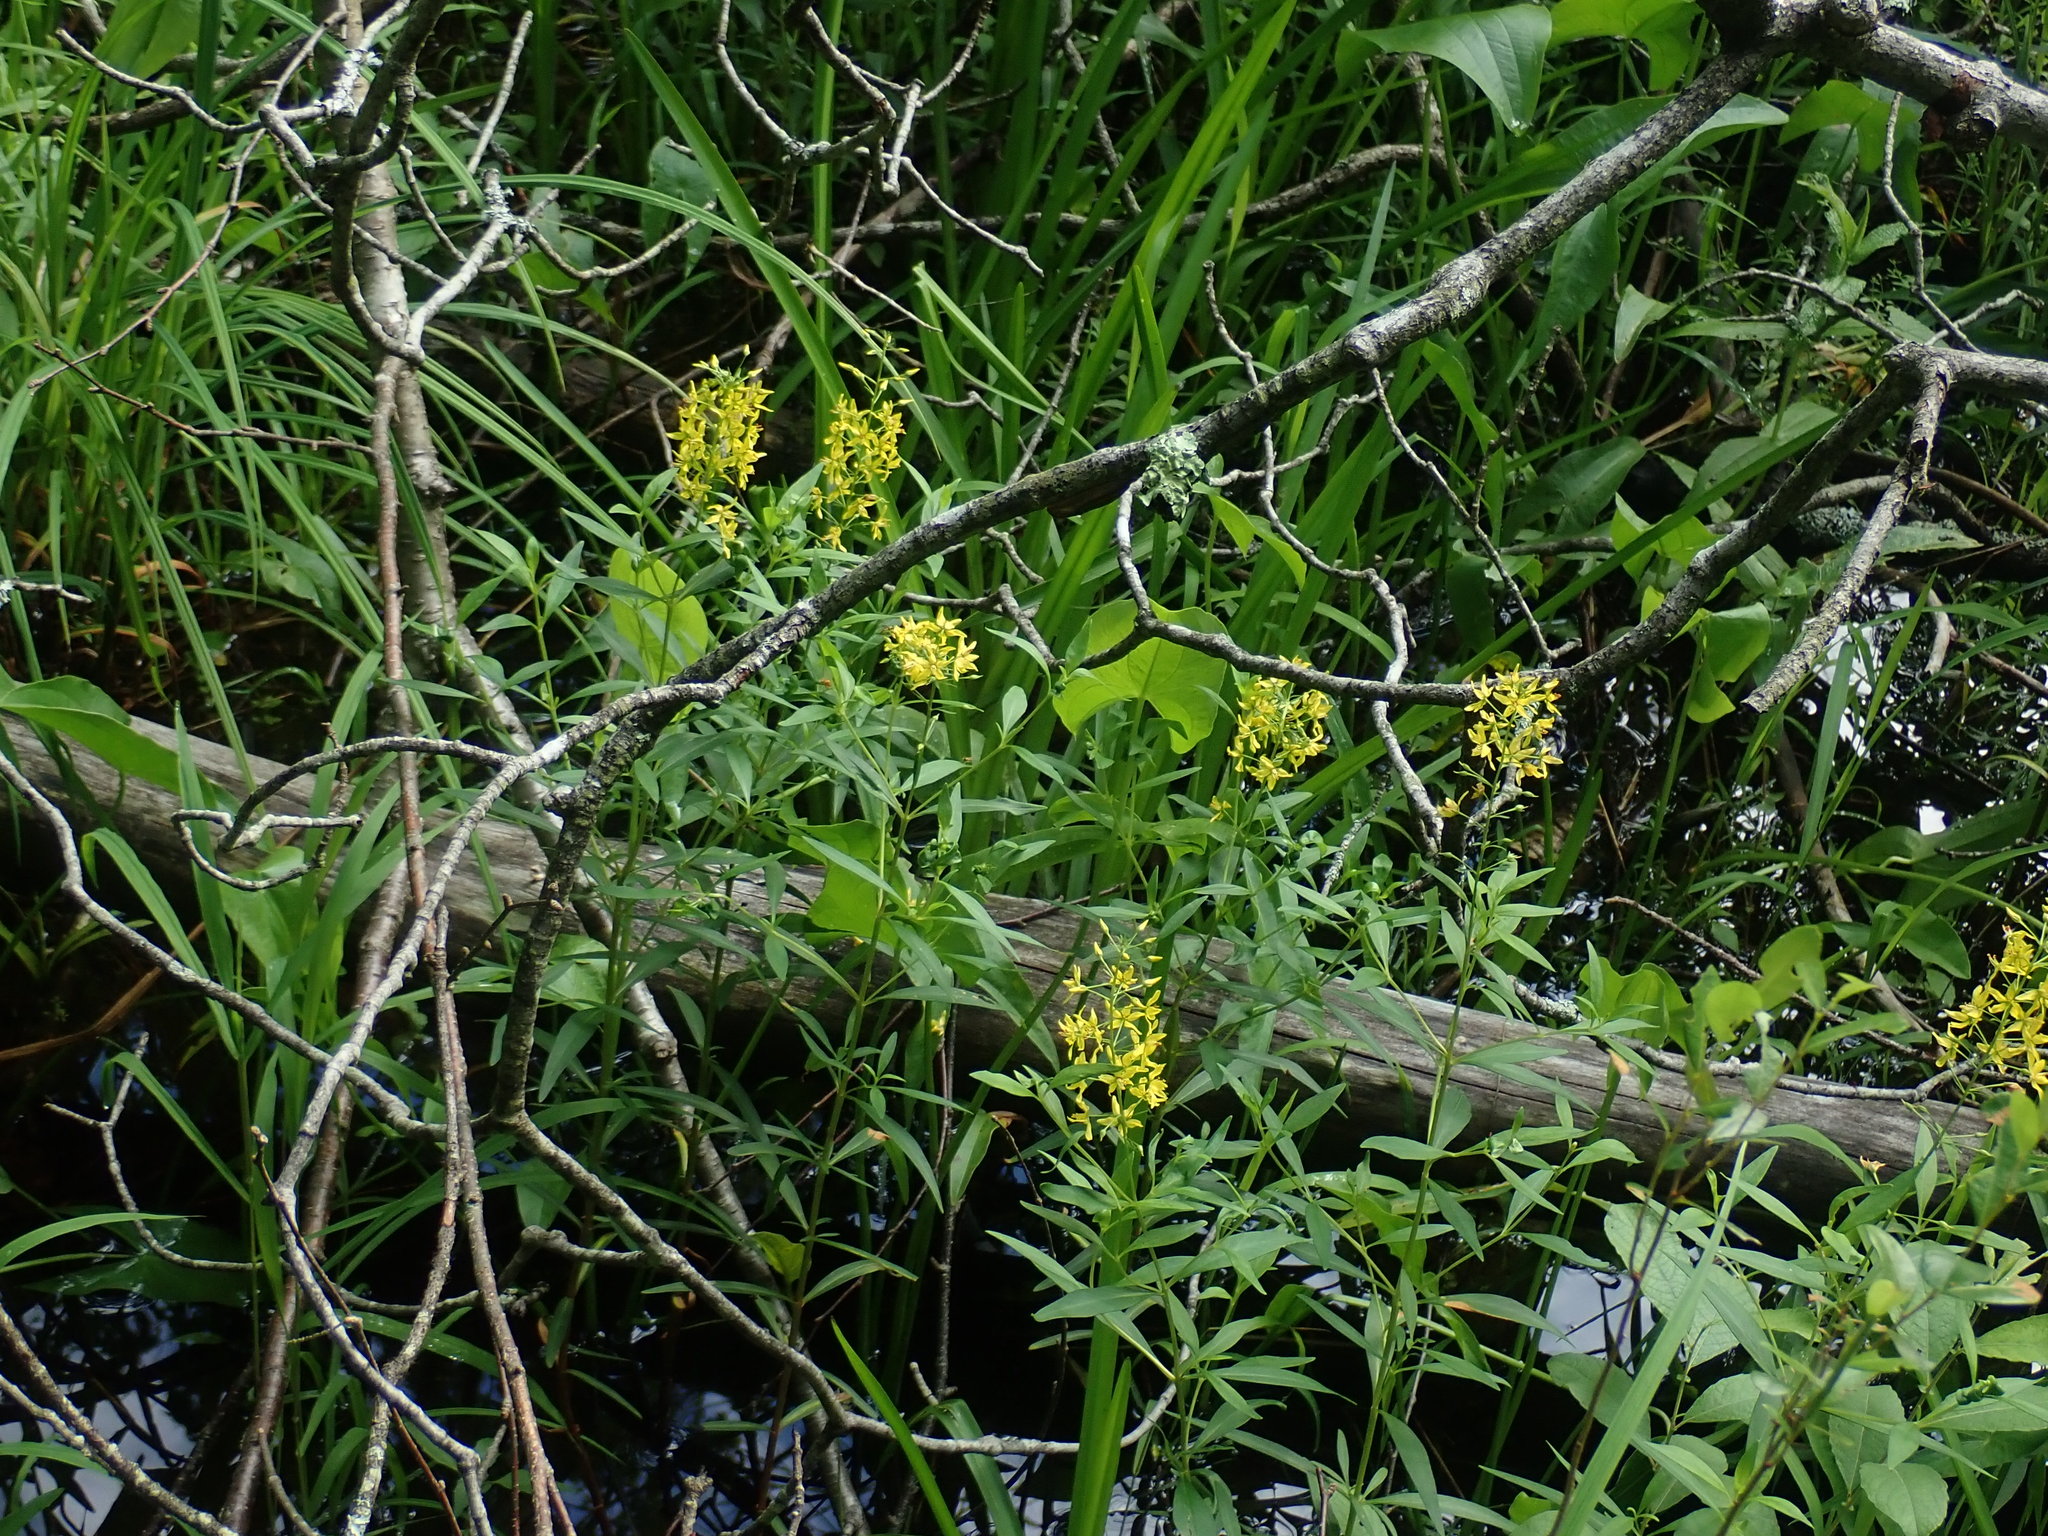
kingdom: Plantae
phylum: Tracheophyta
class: Magnoliopsida
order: Ericales
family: Primulaceae
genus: Lysimachia
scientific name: Lysimachia terrestris
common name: Lake loosestrife
